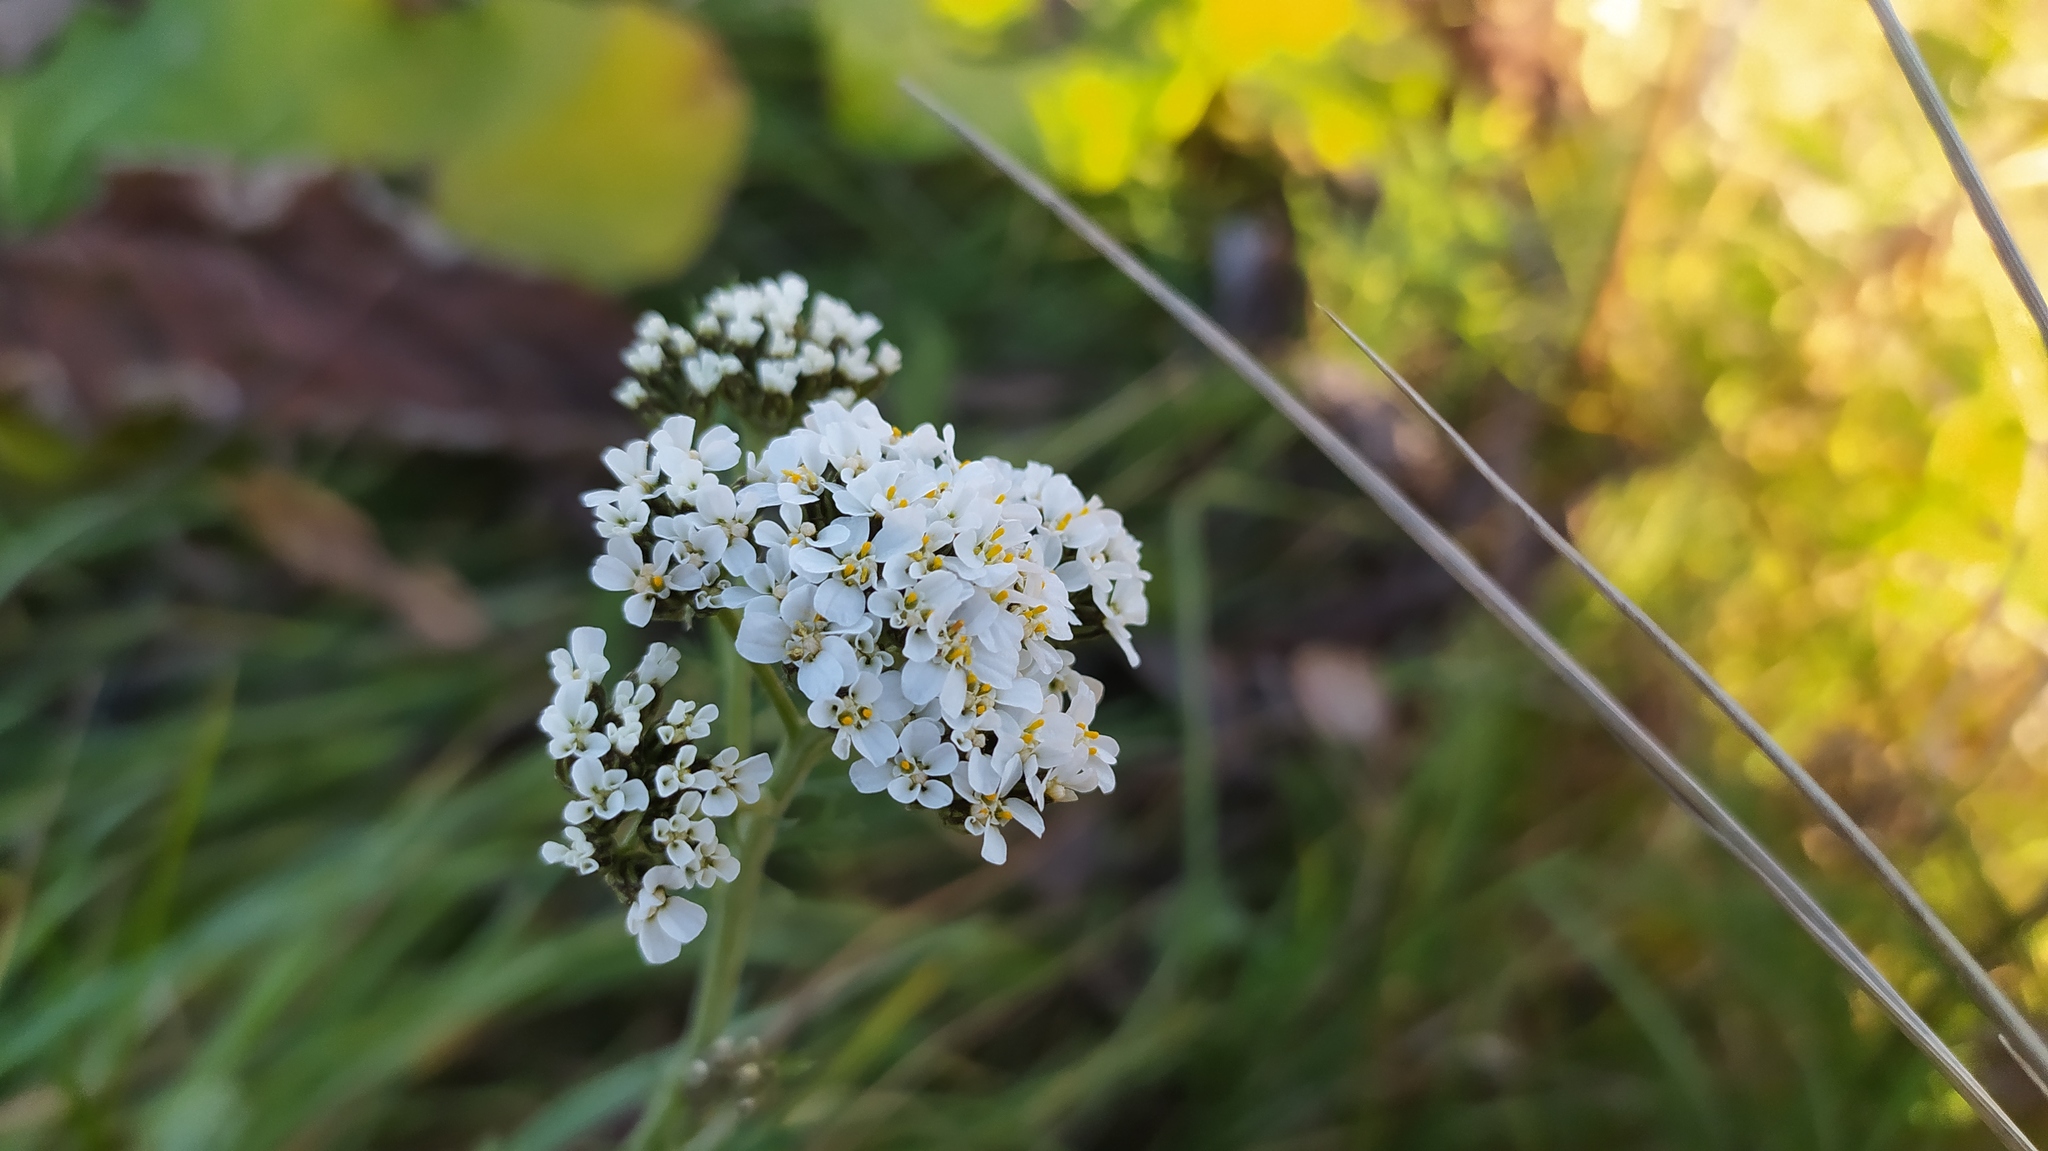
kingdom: Plantae
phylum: Tracheophyta
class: Magnoliopsida
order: Asterales
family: Asteraceae
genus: Achillea
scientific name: Achillea millefolium
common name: Yarrow
